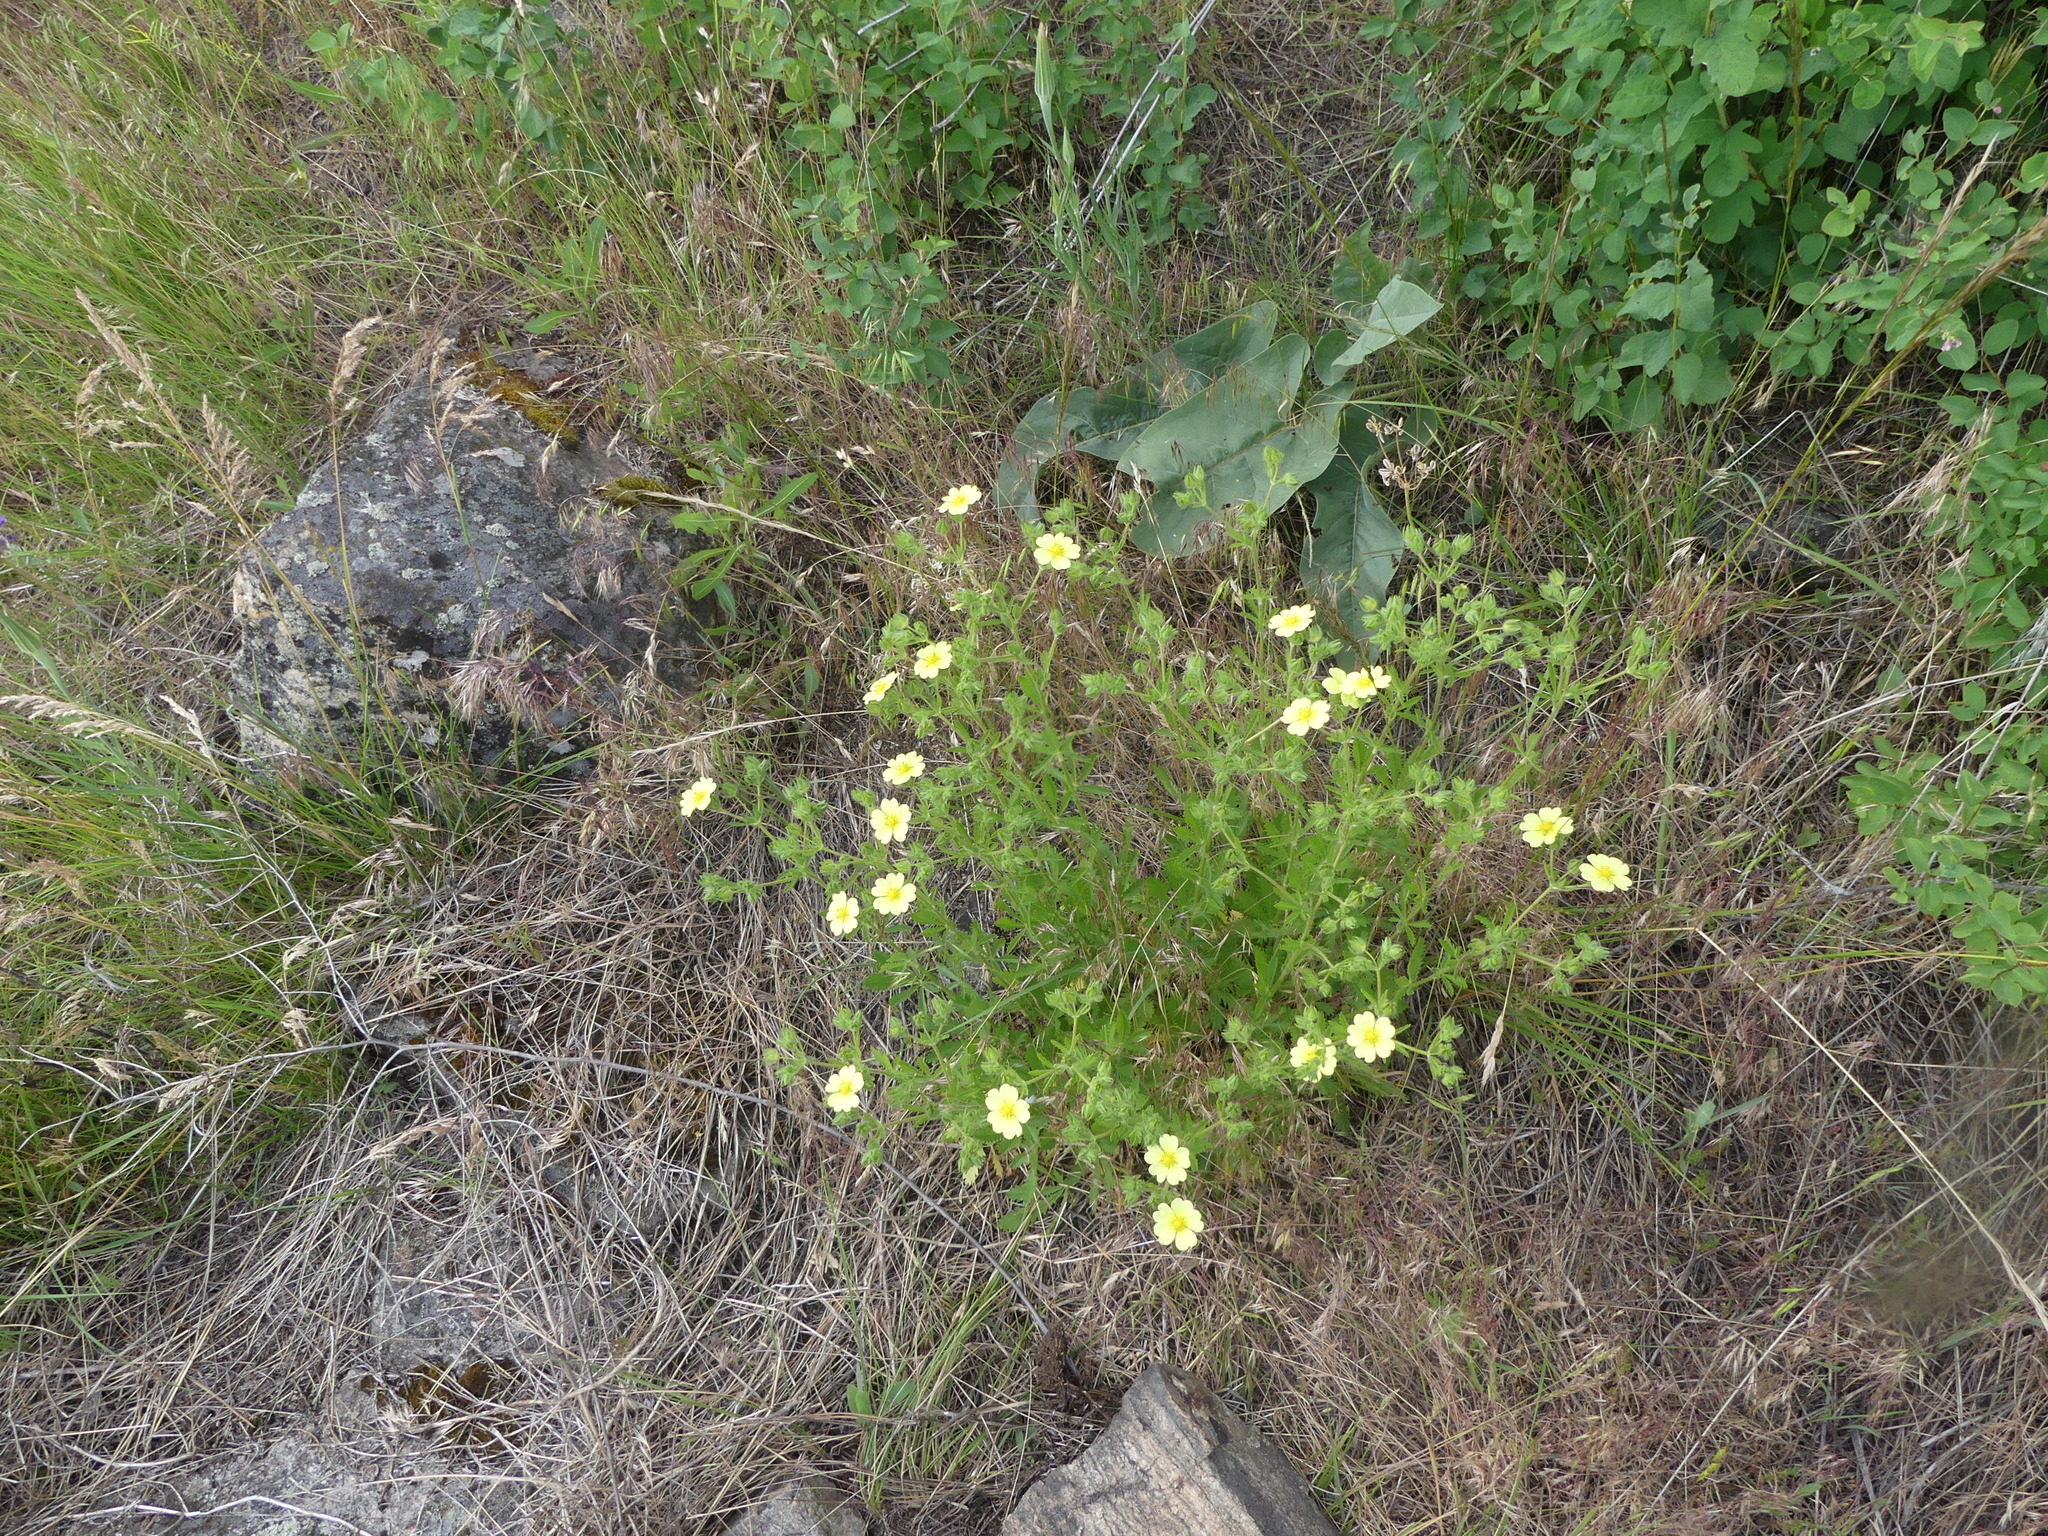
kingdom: Plantae
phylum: Tracheophyta
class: Magnoliopsida
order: Rosales
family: Rosaceae
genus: Potentilla
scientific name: Potentilla recta
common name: Sulphur cinquefoil
